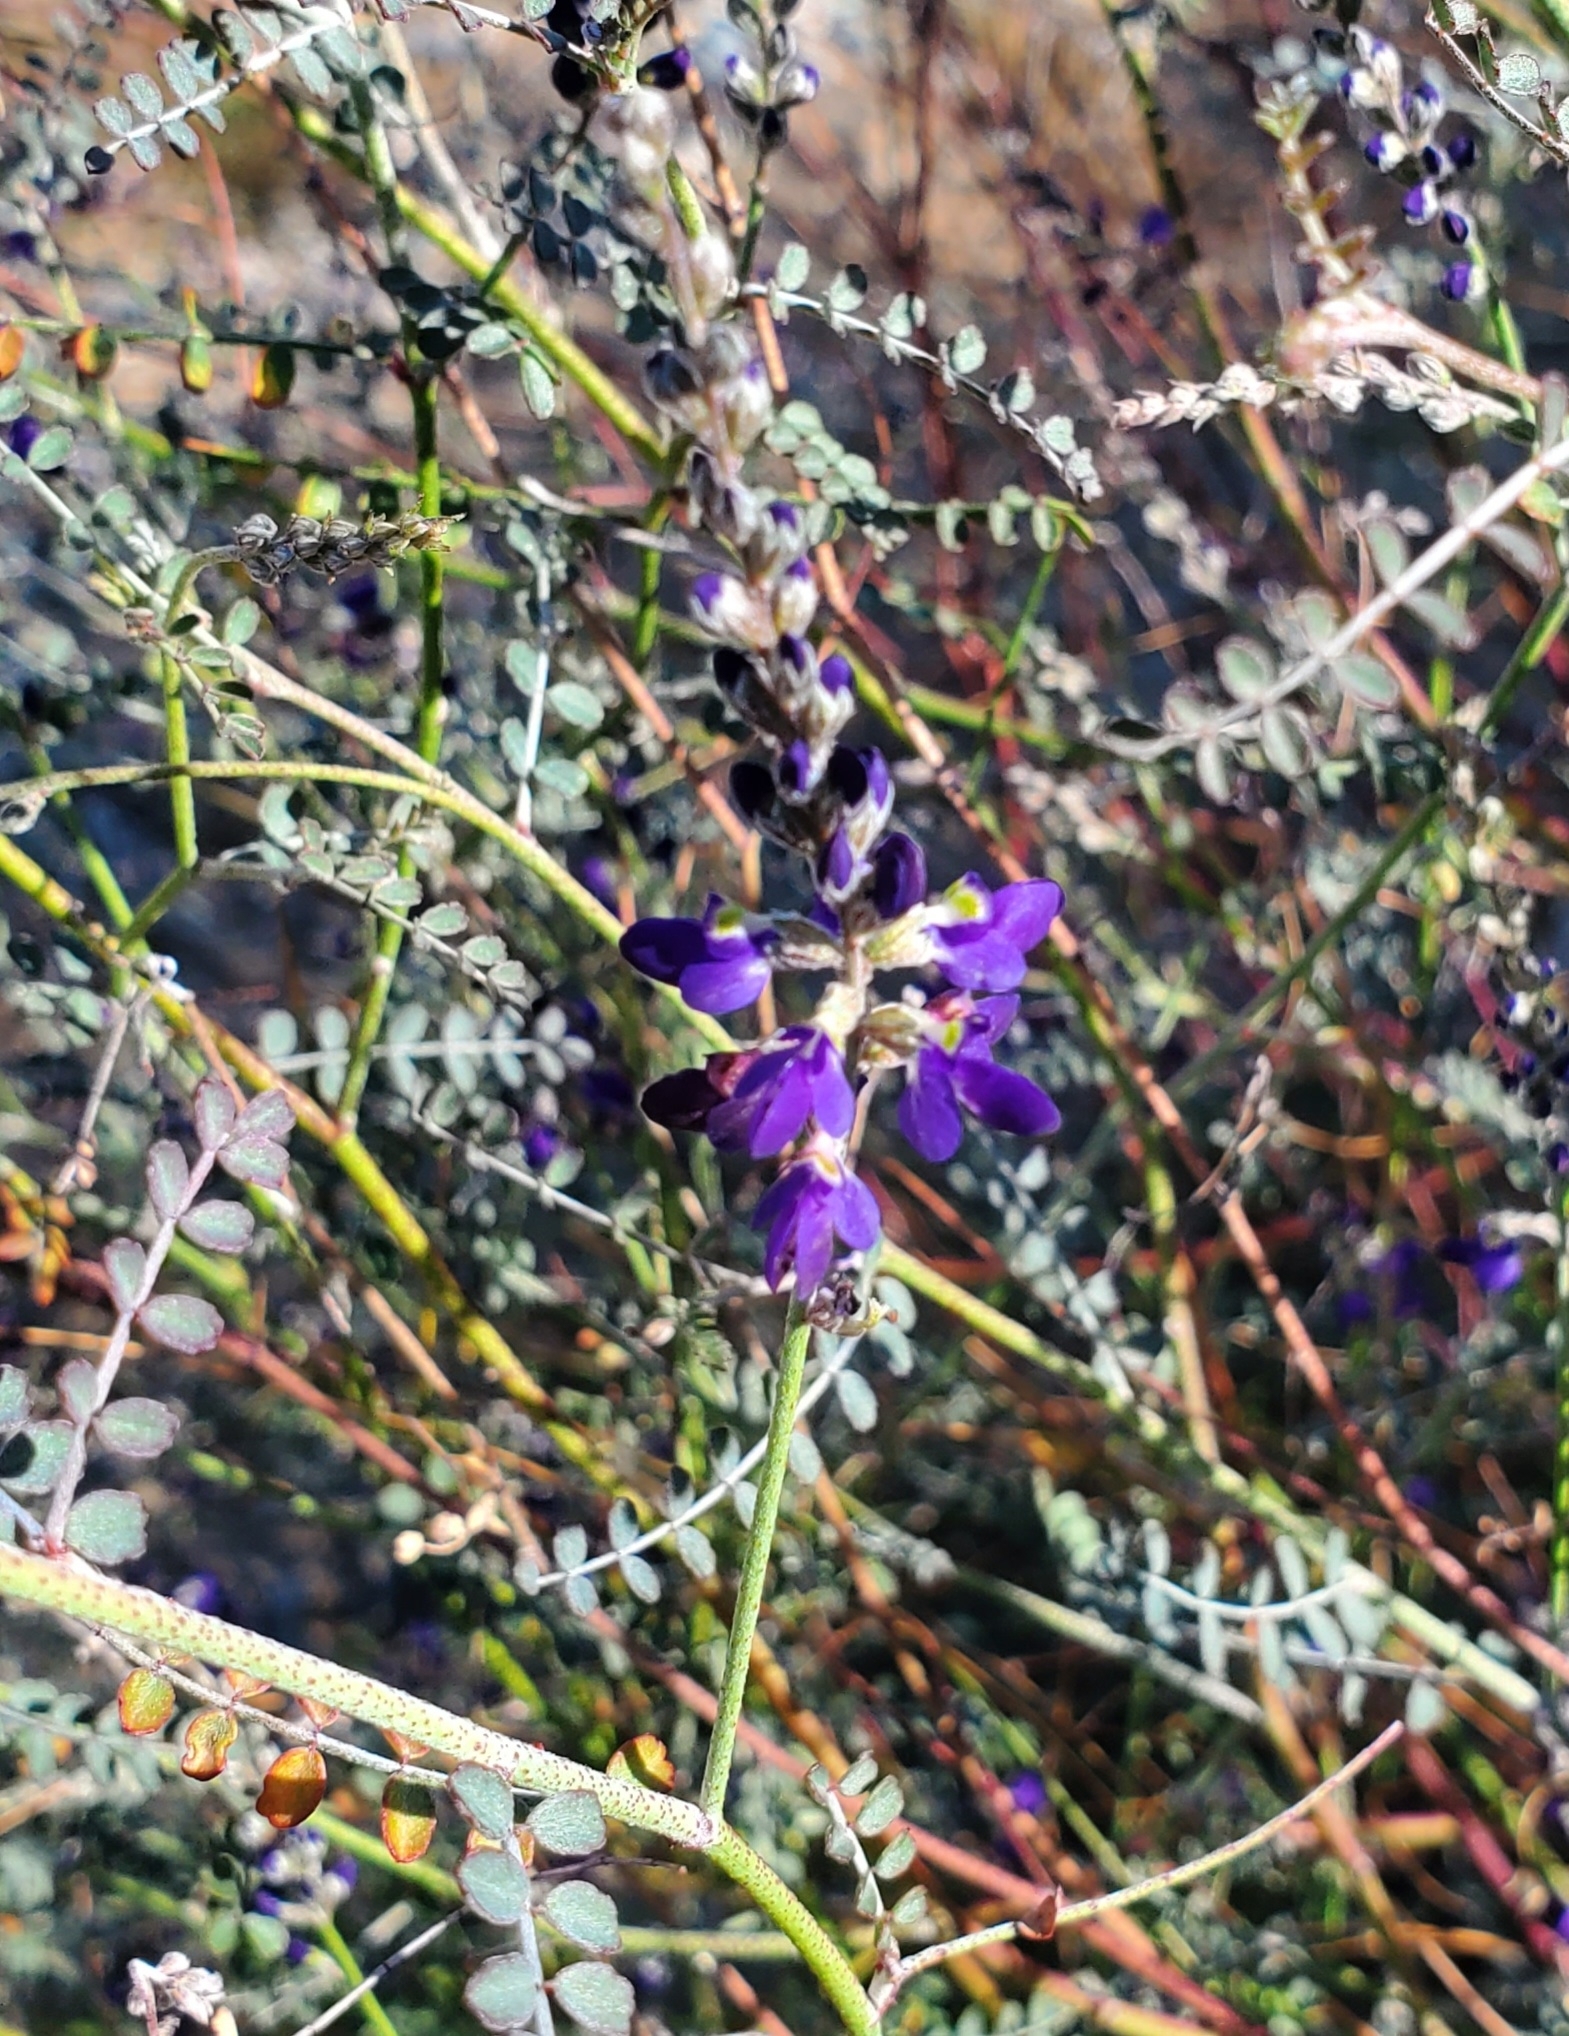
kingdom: Plantae
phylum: Tracheophyta
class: Magnoliopsida
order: Fabales
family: Fabaceae
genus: Marina
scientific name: Marina parryi
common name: Parry's marina
